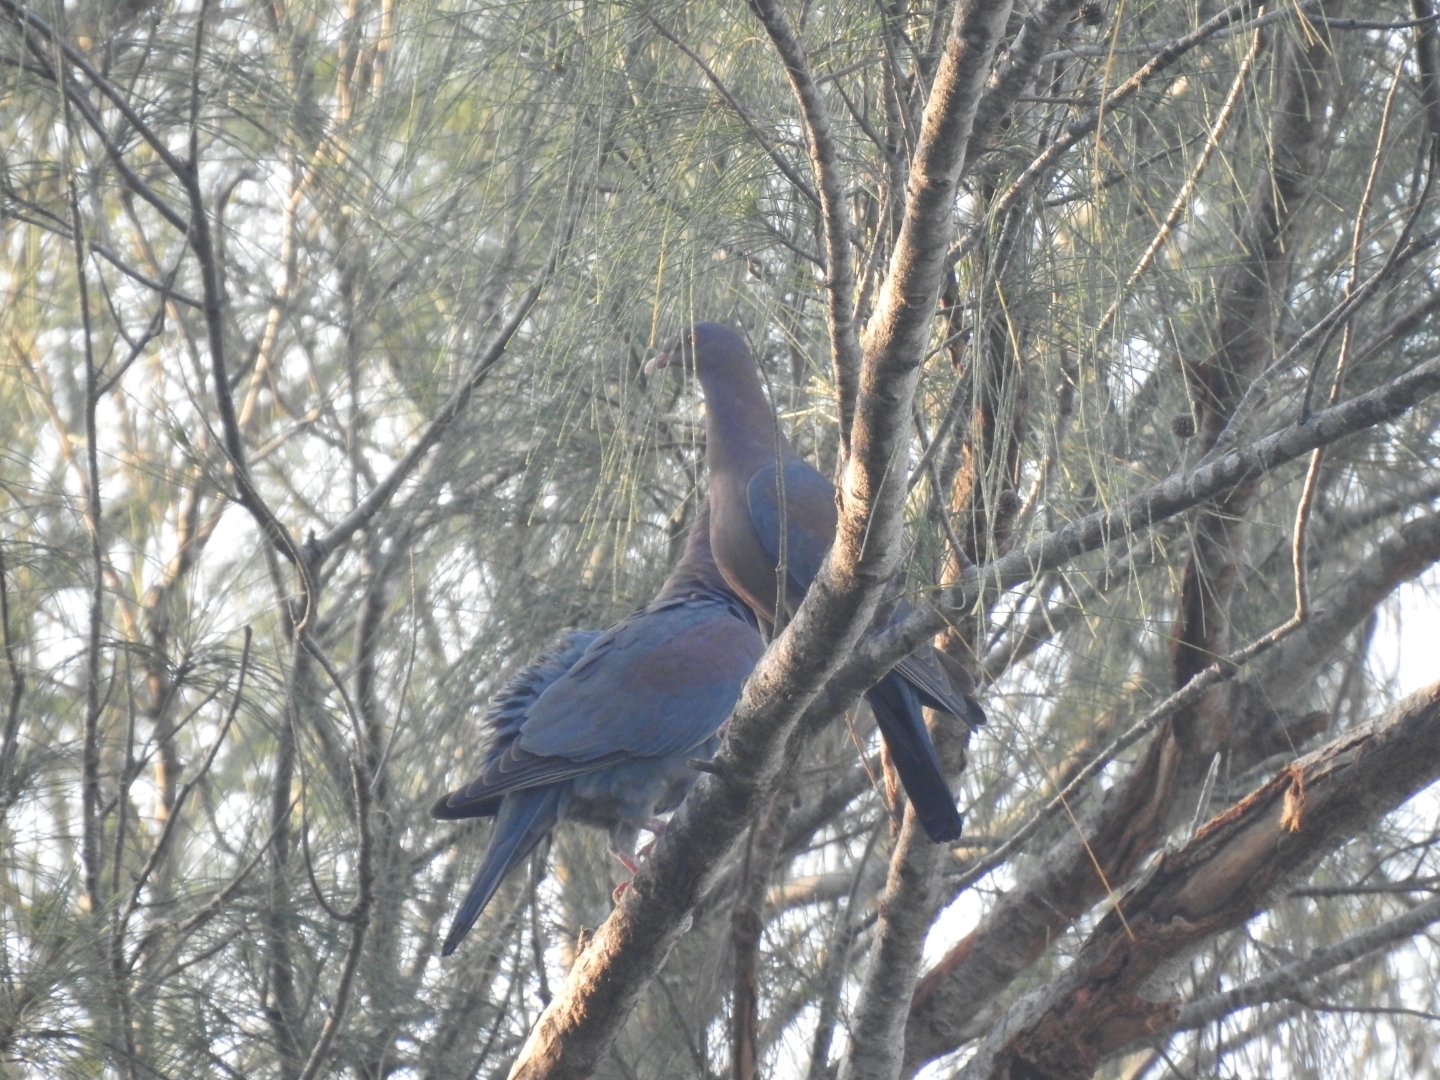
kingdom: Animalia
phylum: Chordata
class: Aves
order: Columbiformes
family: Columbidae
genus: Patagioenas
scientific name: Patagioenas flavirostris
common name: Red-billed pigeon
